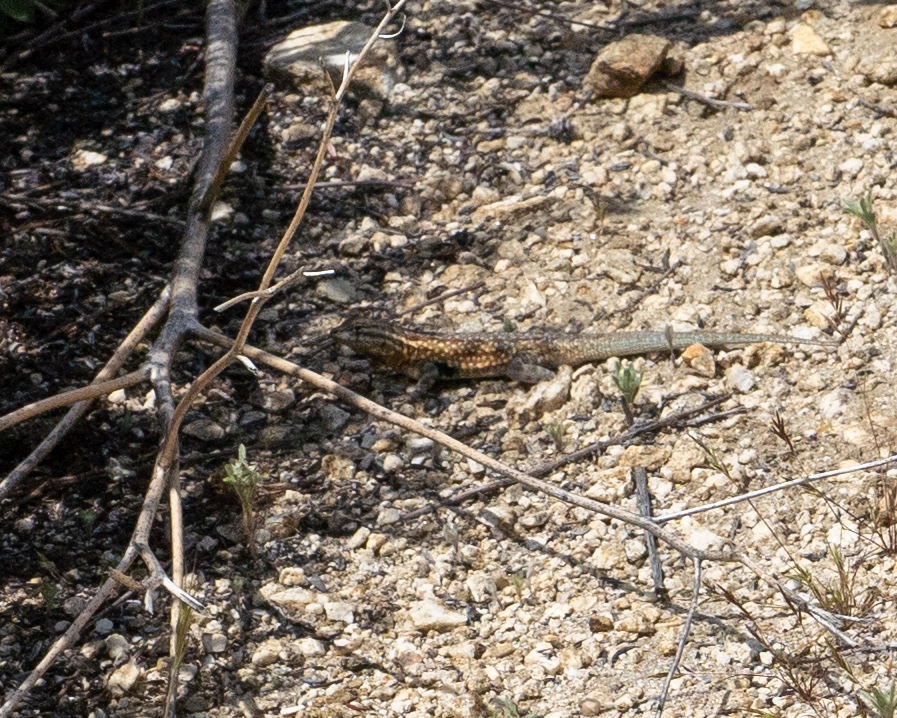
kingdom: Animalia
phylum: Chordata
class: Squamata
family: Phrynosomatidae
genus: Uta
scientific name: Uta stansburiana
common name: Side-blotched lizard
